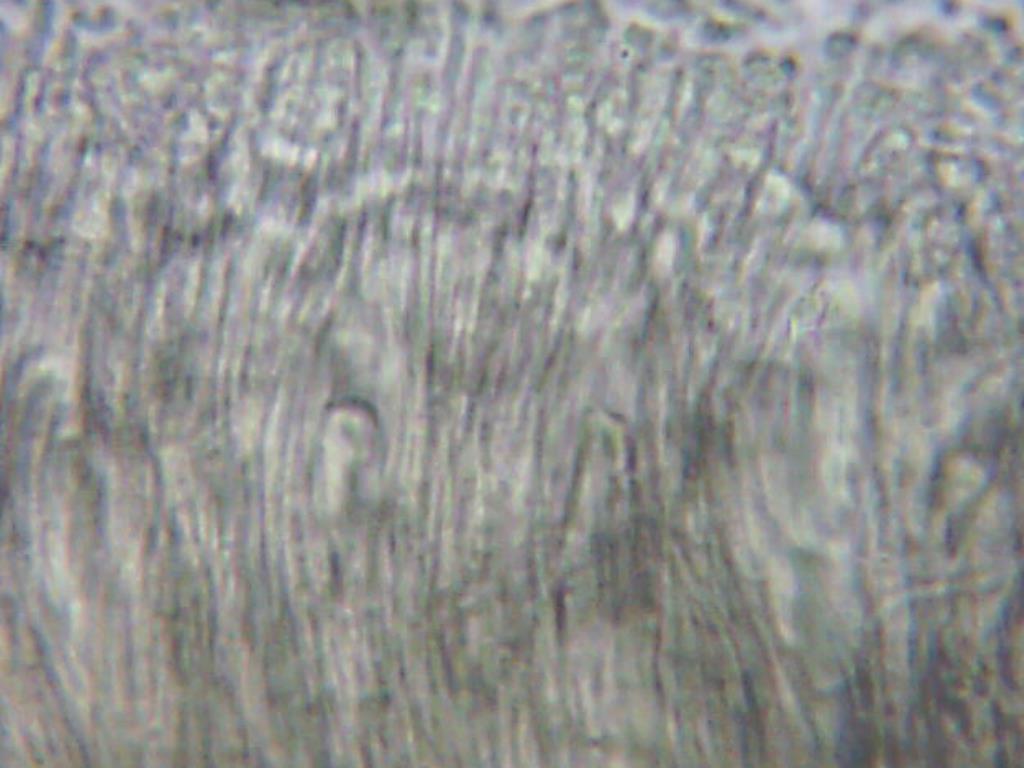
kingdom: Fungi
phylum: Ascomycota
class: Leotiomycetes
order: Helotiales
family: Gelatinodiscaceae
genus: Ascocoryne
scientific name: Ascocoryne sarcoides
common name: Purple jellydisc
